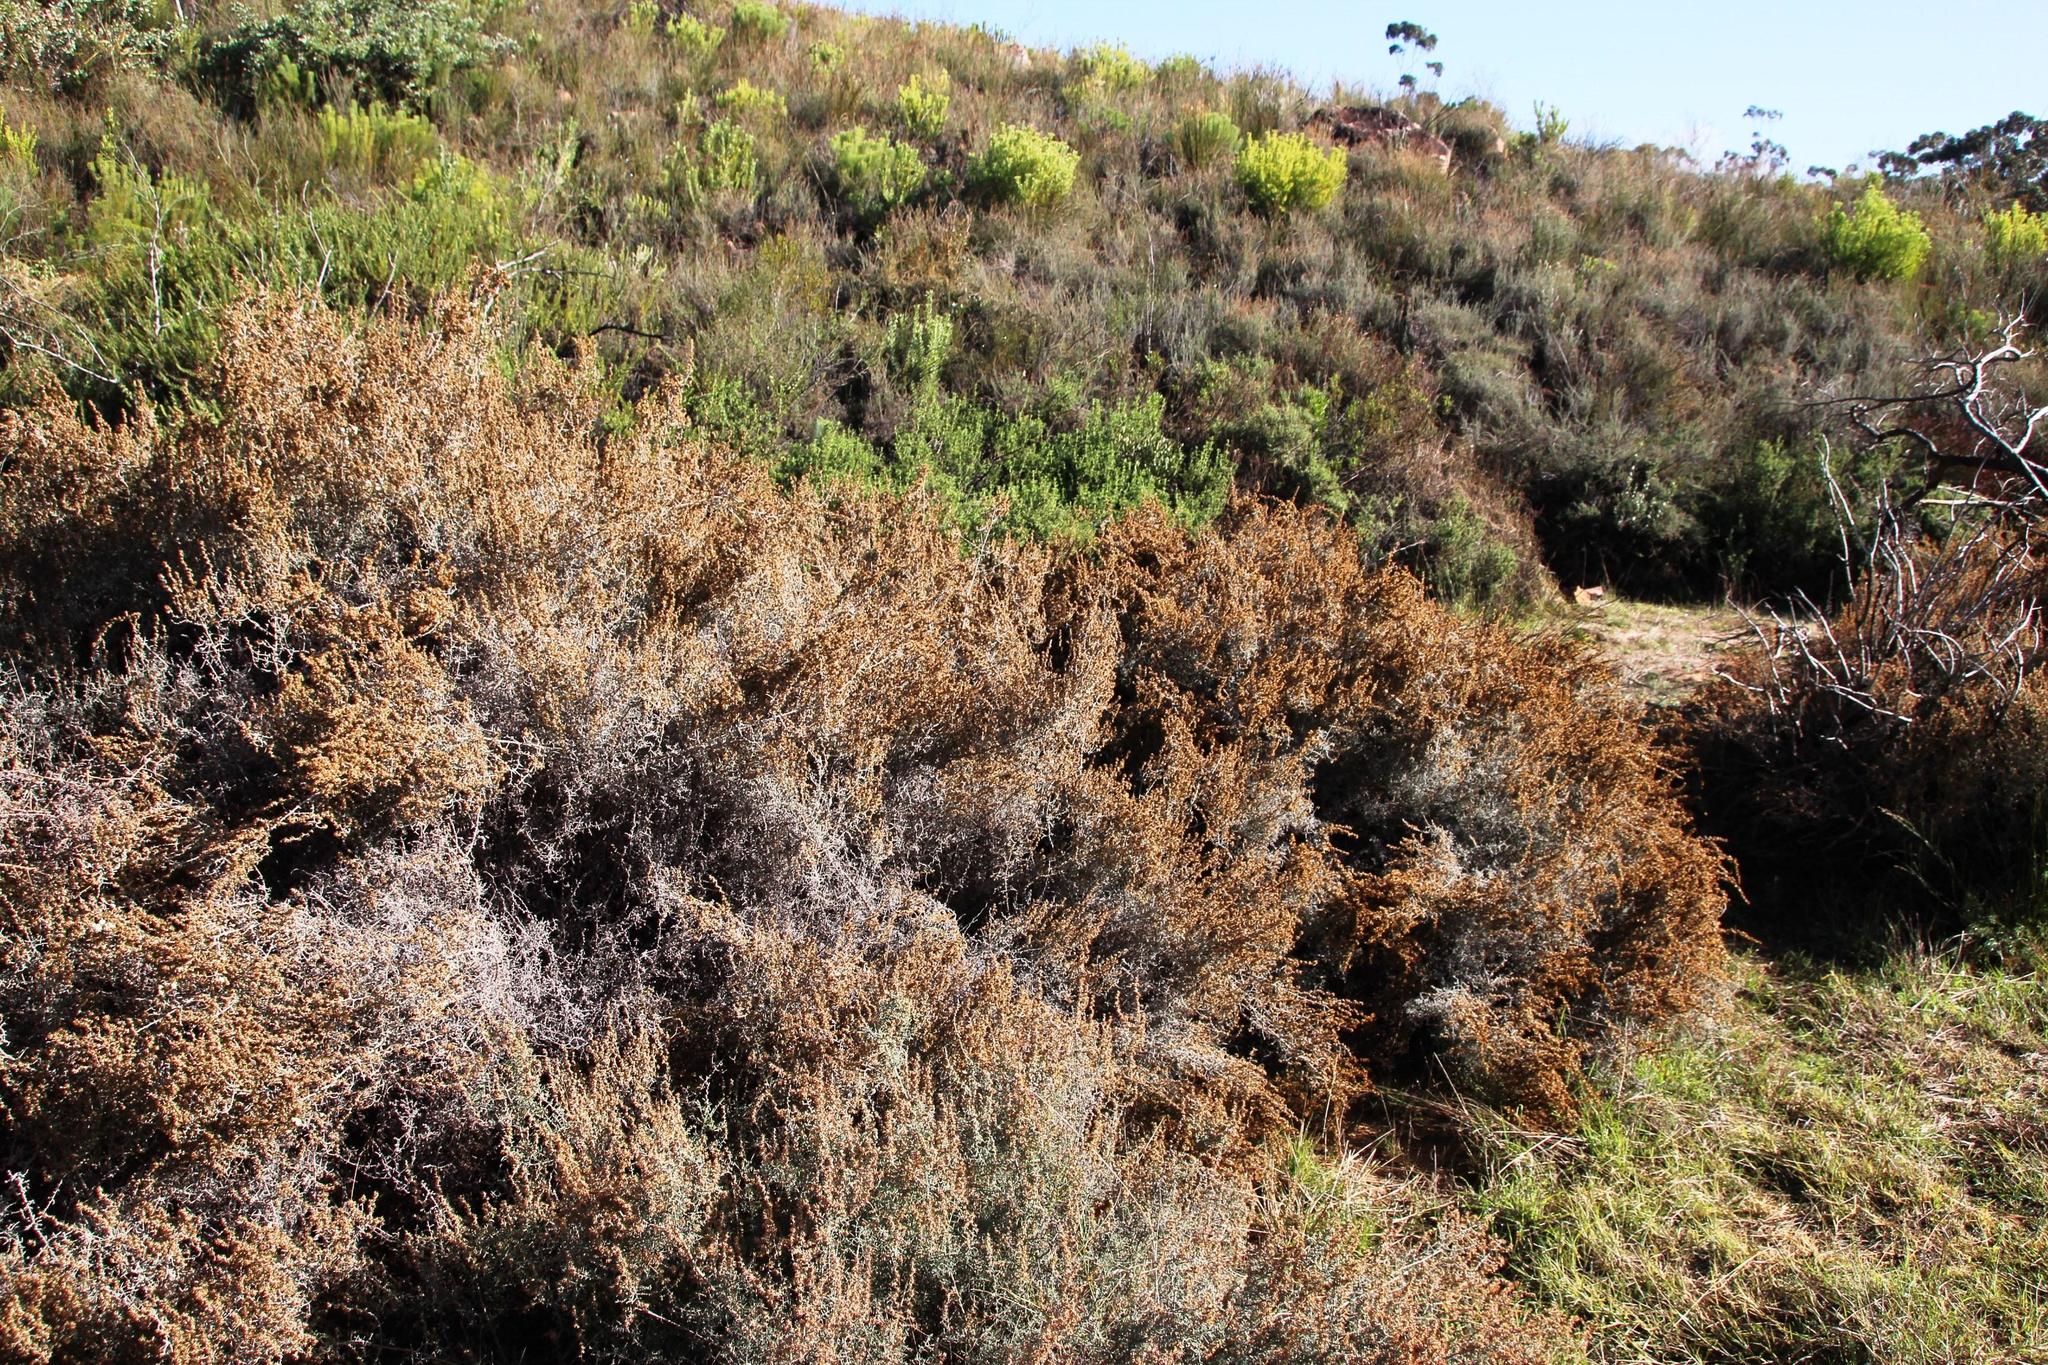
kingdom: Plantae
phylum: Tracheophyta
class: Magnoliopsida
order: Asterales
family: Asteraceae
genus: Seriphium
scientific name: Seriphium plumosum
